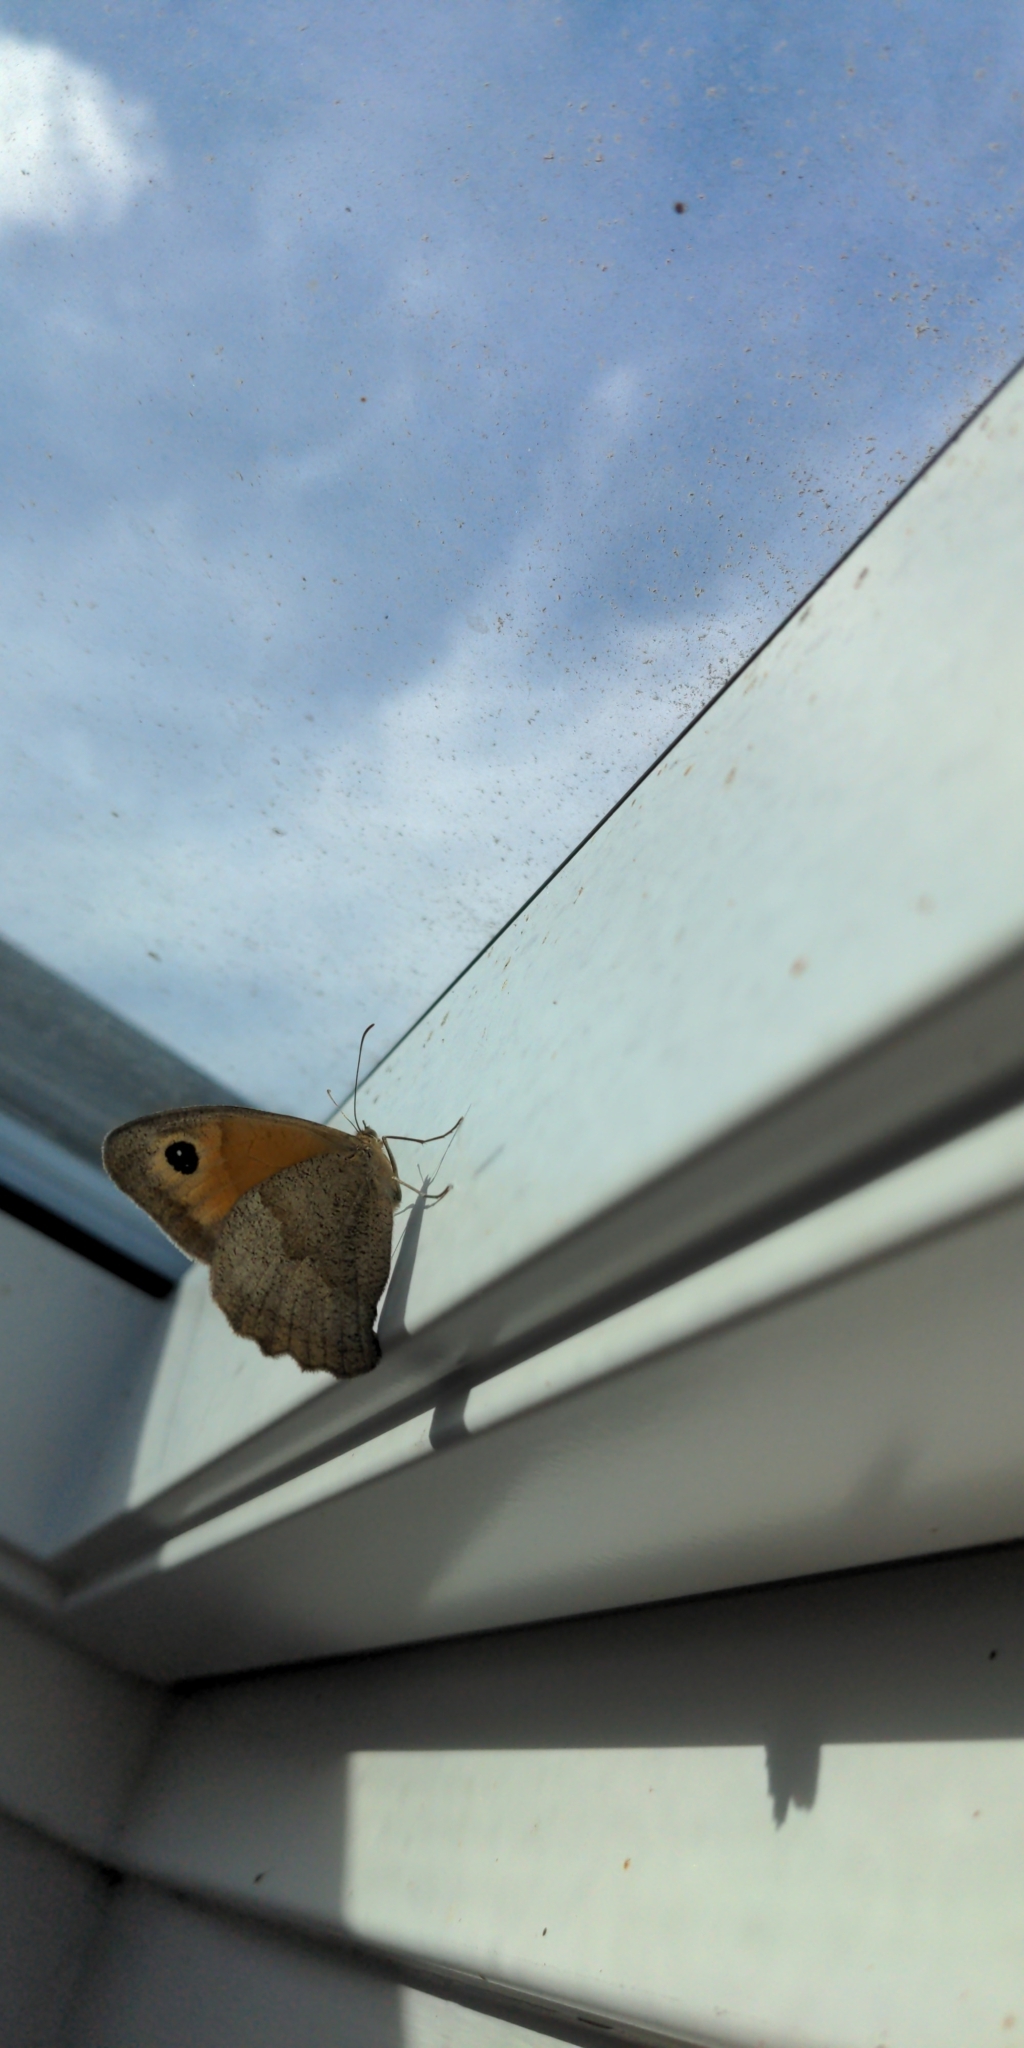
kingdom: Animalia
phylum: Arthropoda
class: Insecta
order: Lepidoptera
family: Nymphalidae
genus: Maniola
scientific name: Maniola jurtina
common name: Meadow brown
